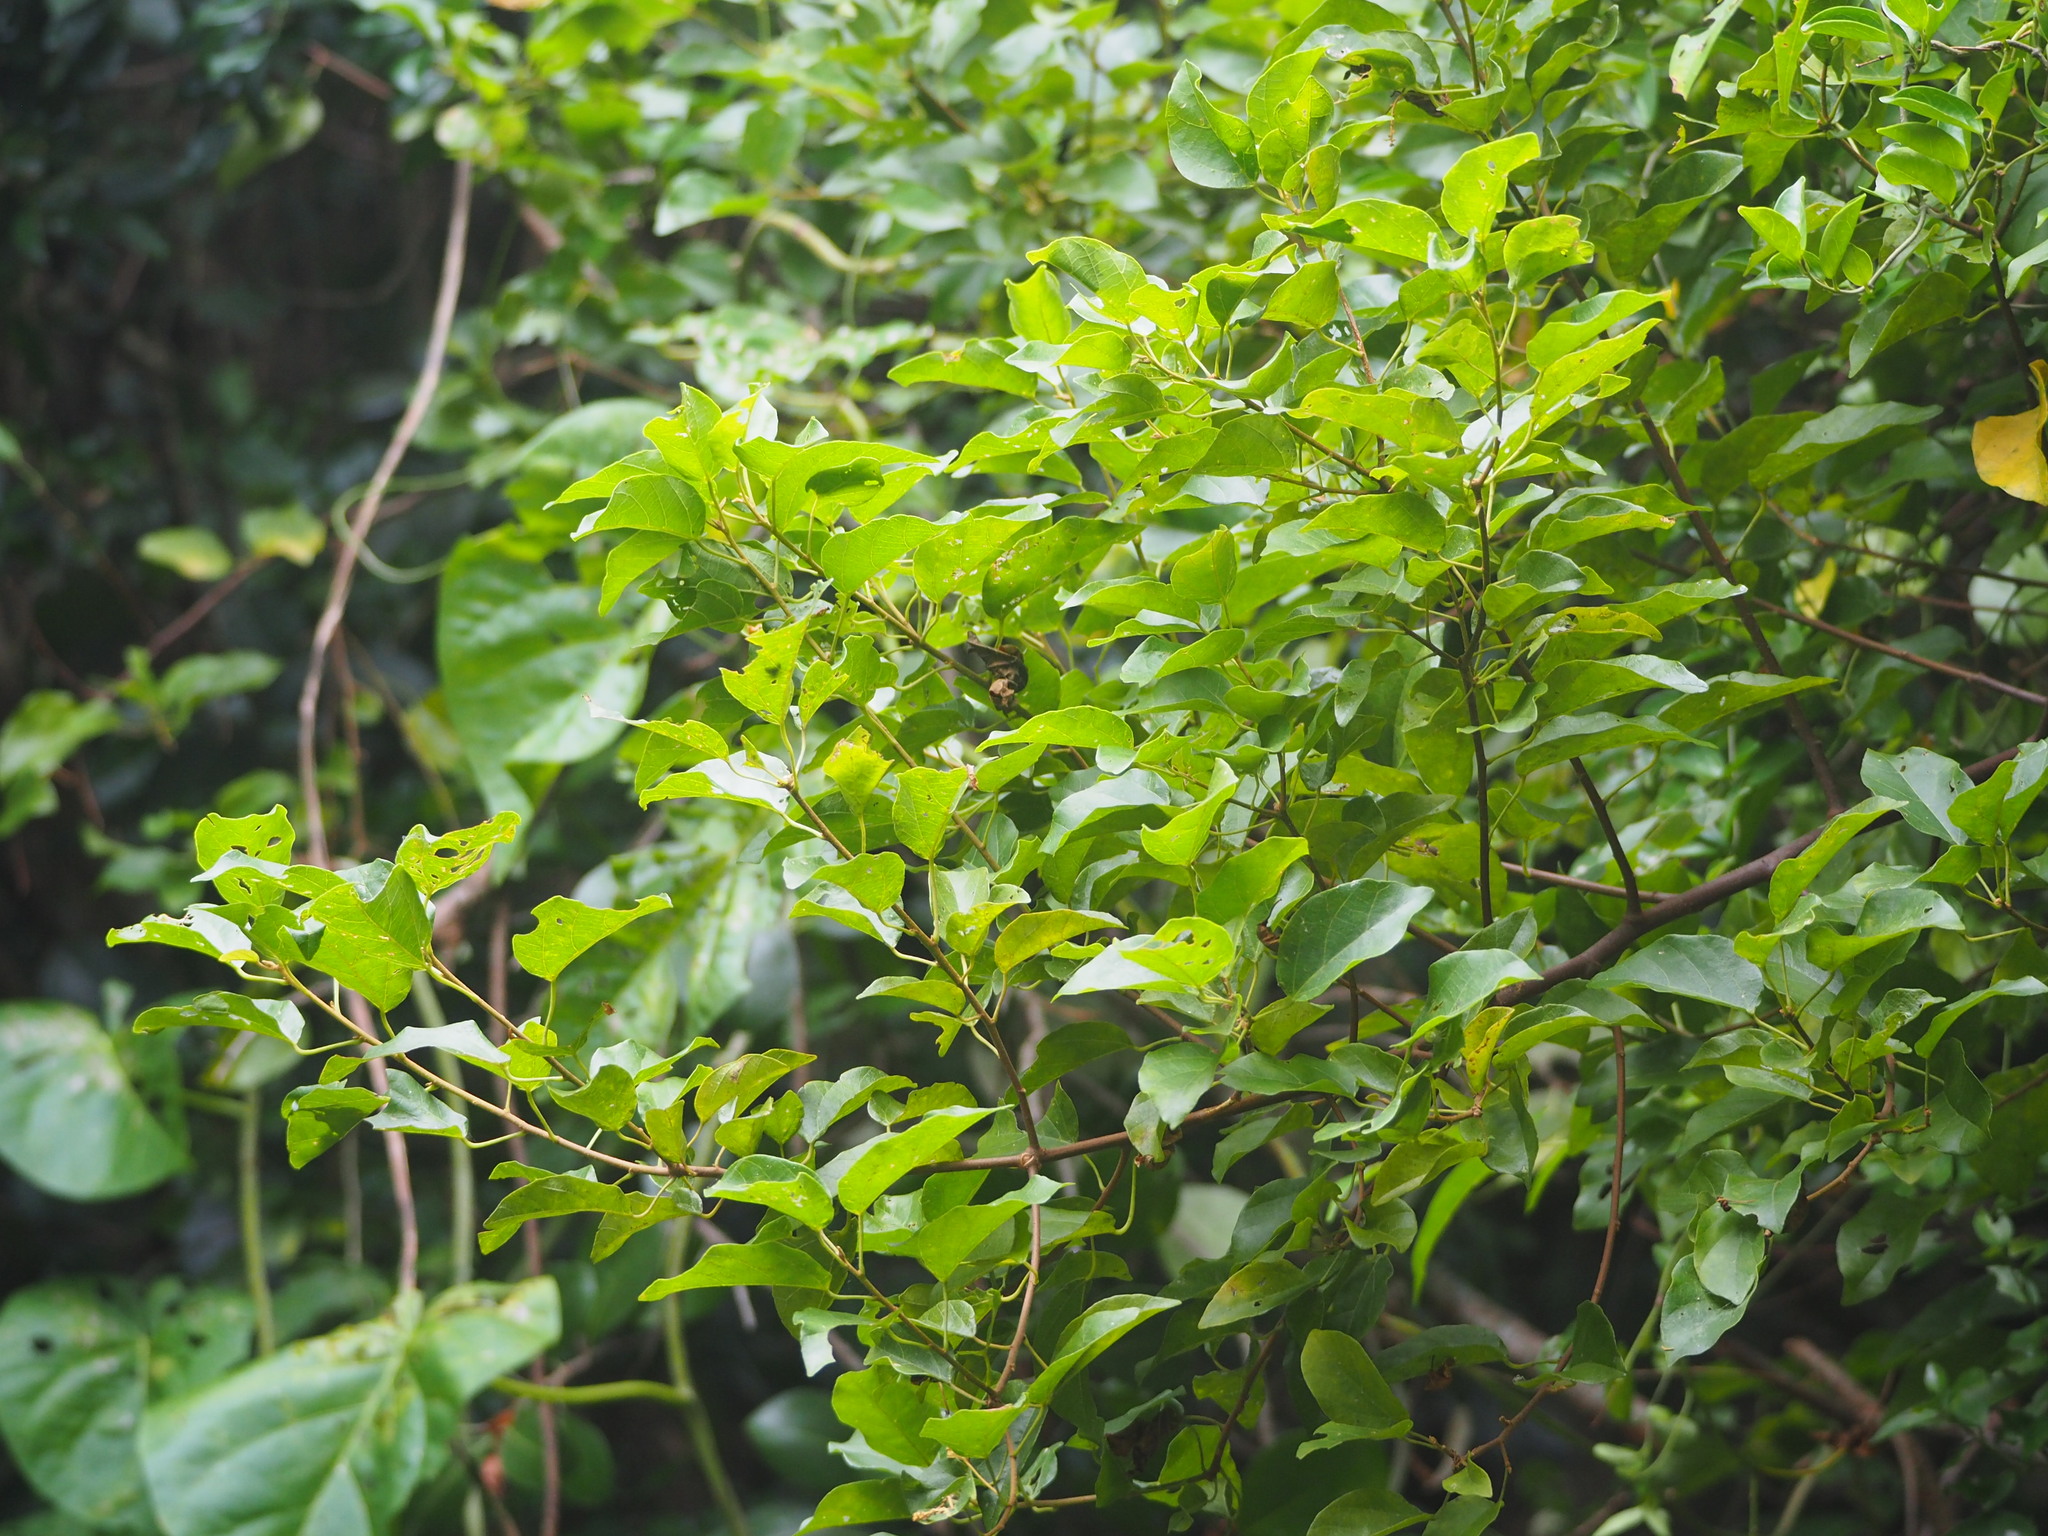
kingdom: Plantae
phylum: Tracheophyta
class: Magnoliopsida
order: Malpighiales
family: Euphorbiaceae
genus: Mallotus
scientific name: Mallotus repandus
